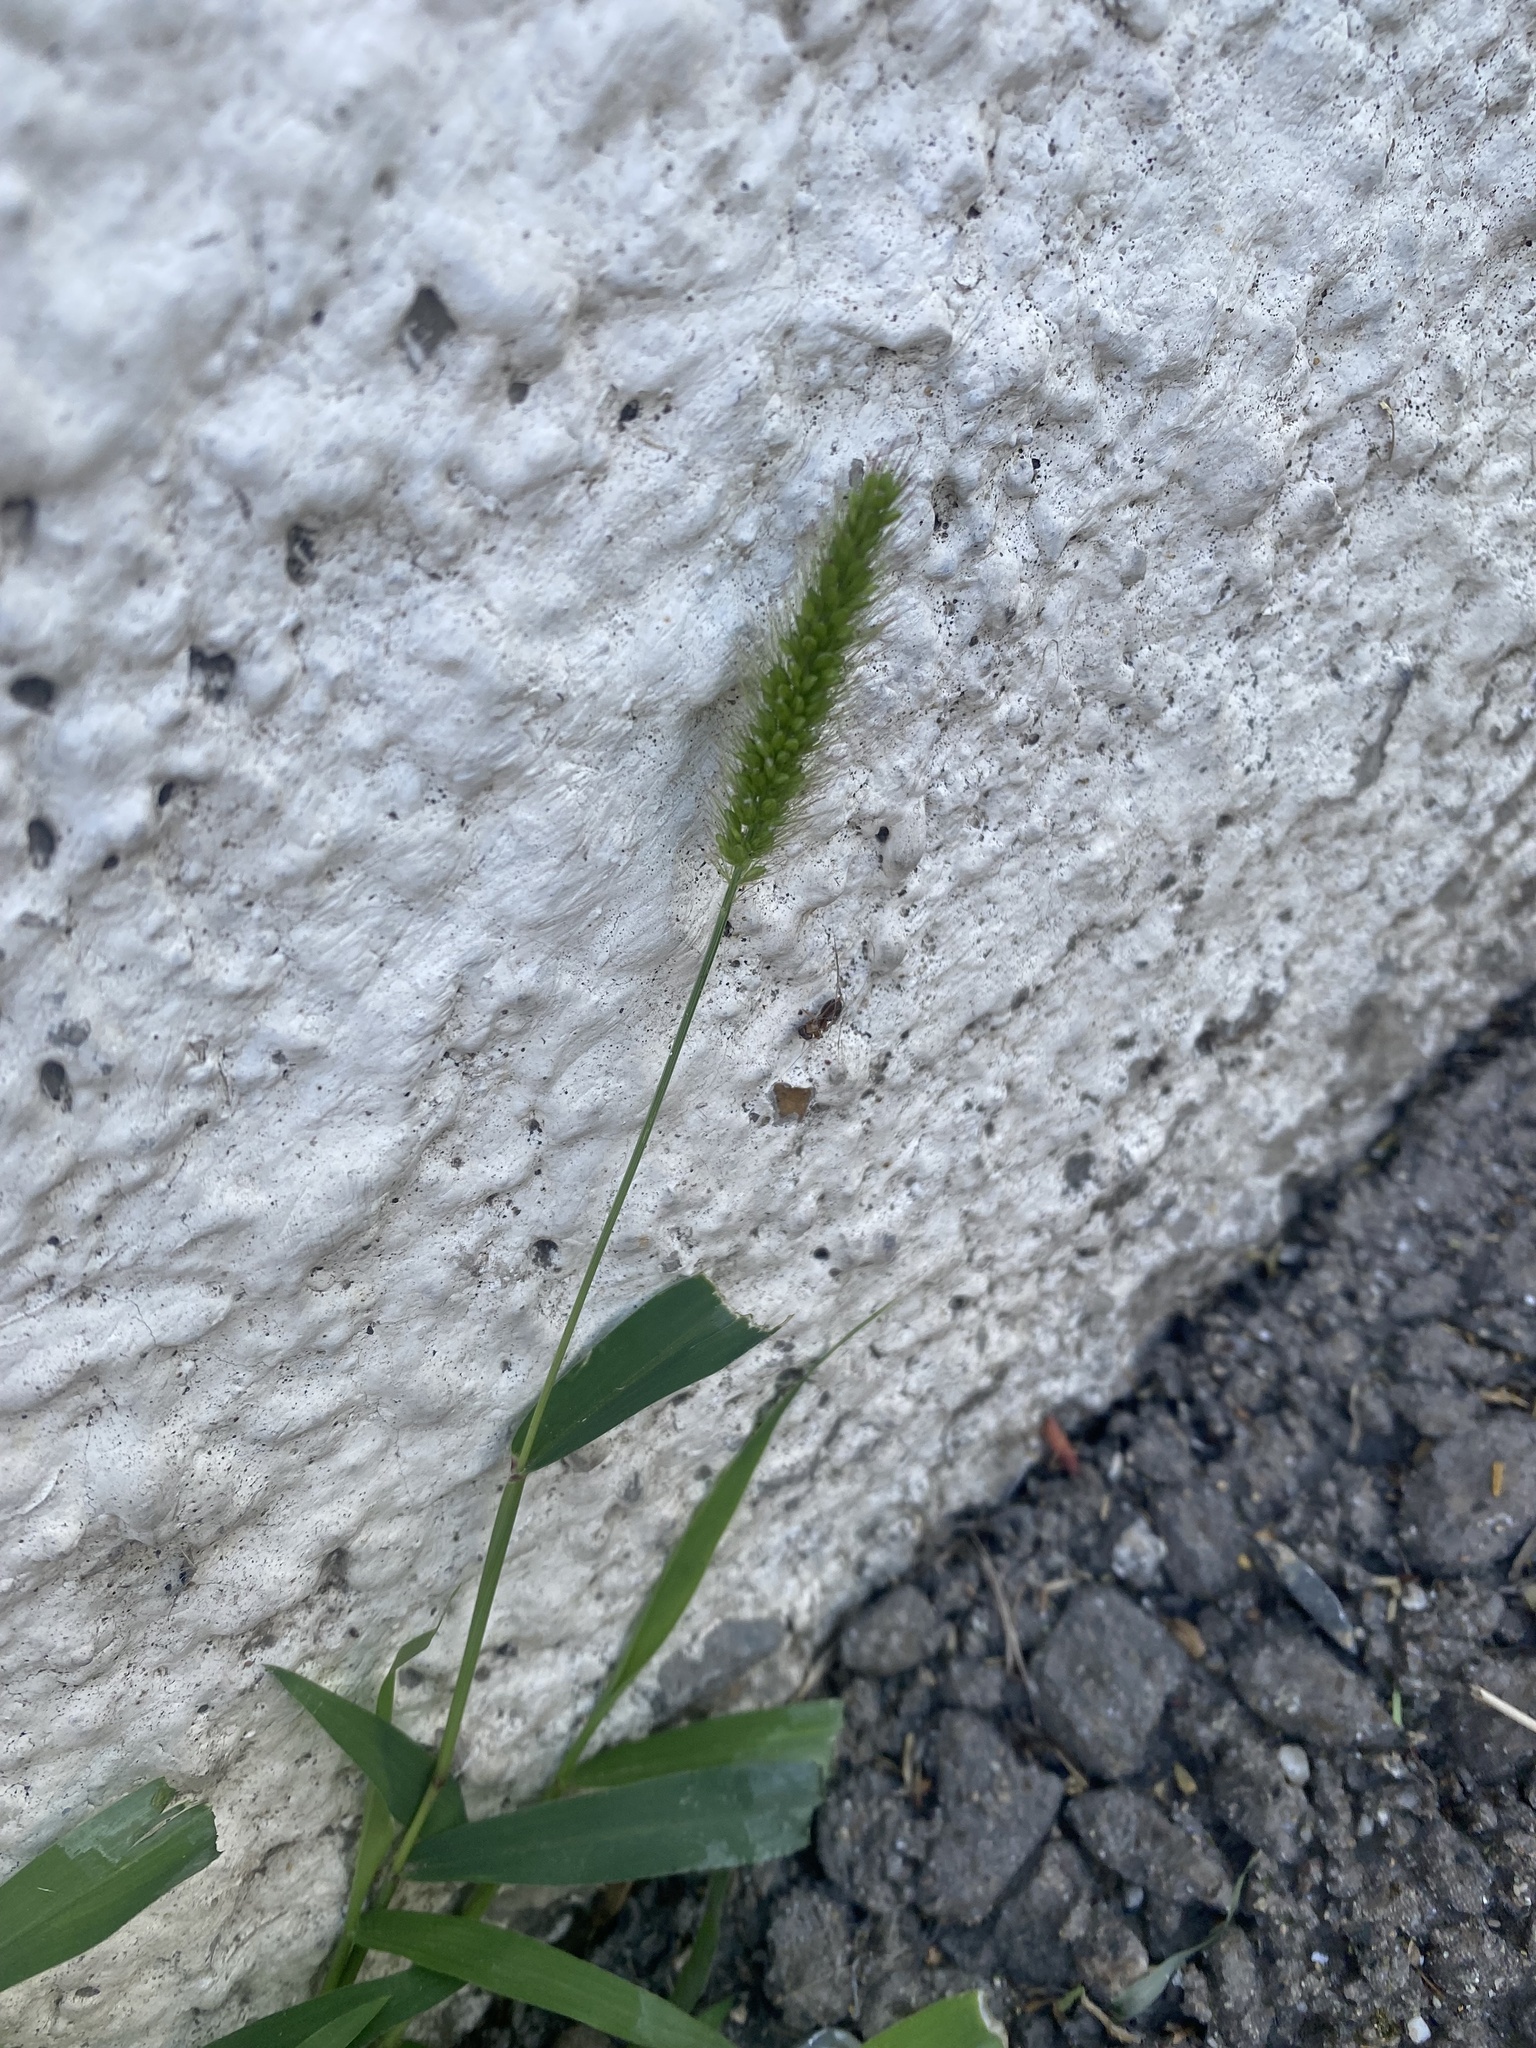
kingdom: Plantae
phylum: Tracheophyta
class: Liliopsida
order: Poales
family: Poaceae
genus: Setaria
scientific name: Setaria viridis
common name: Green bristlegrass
